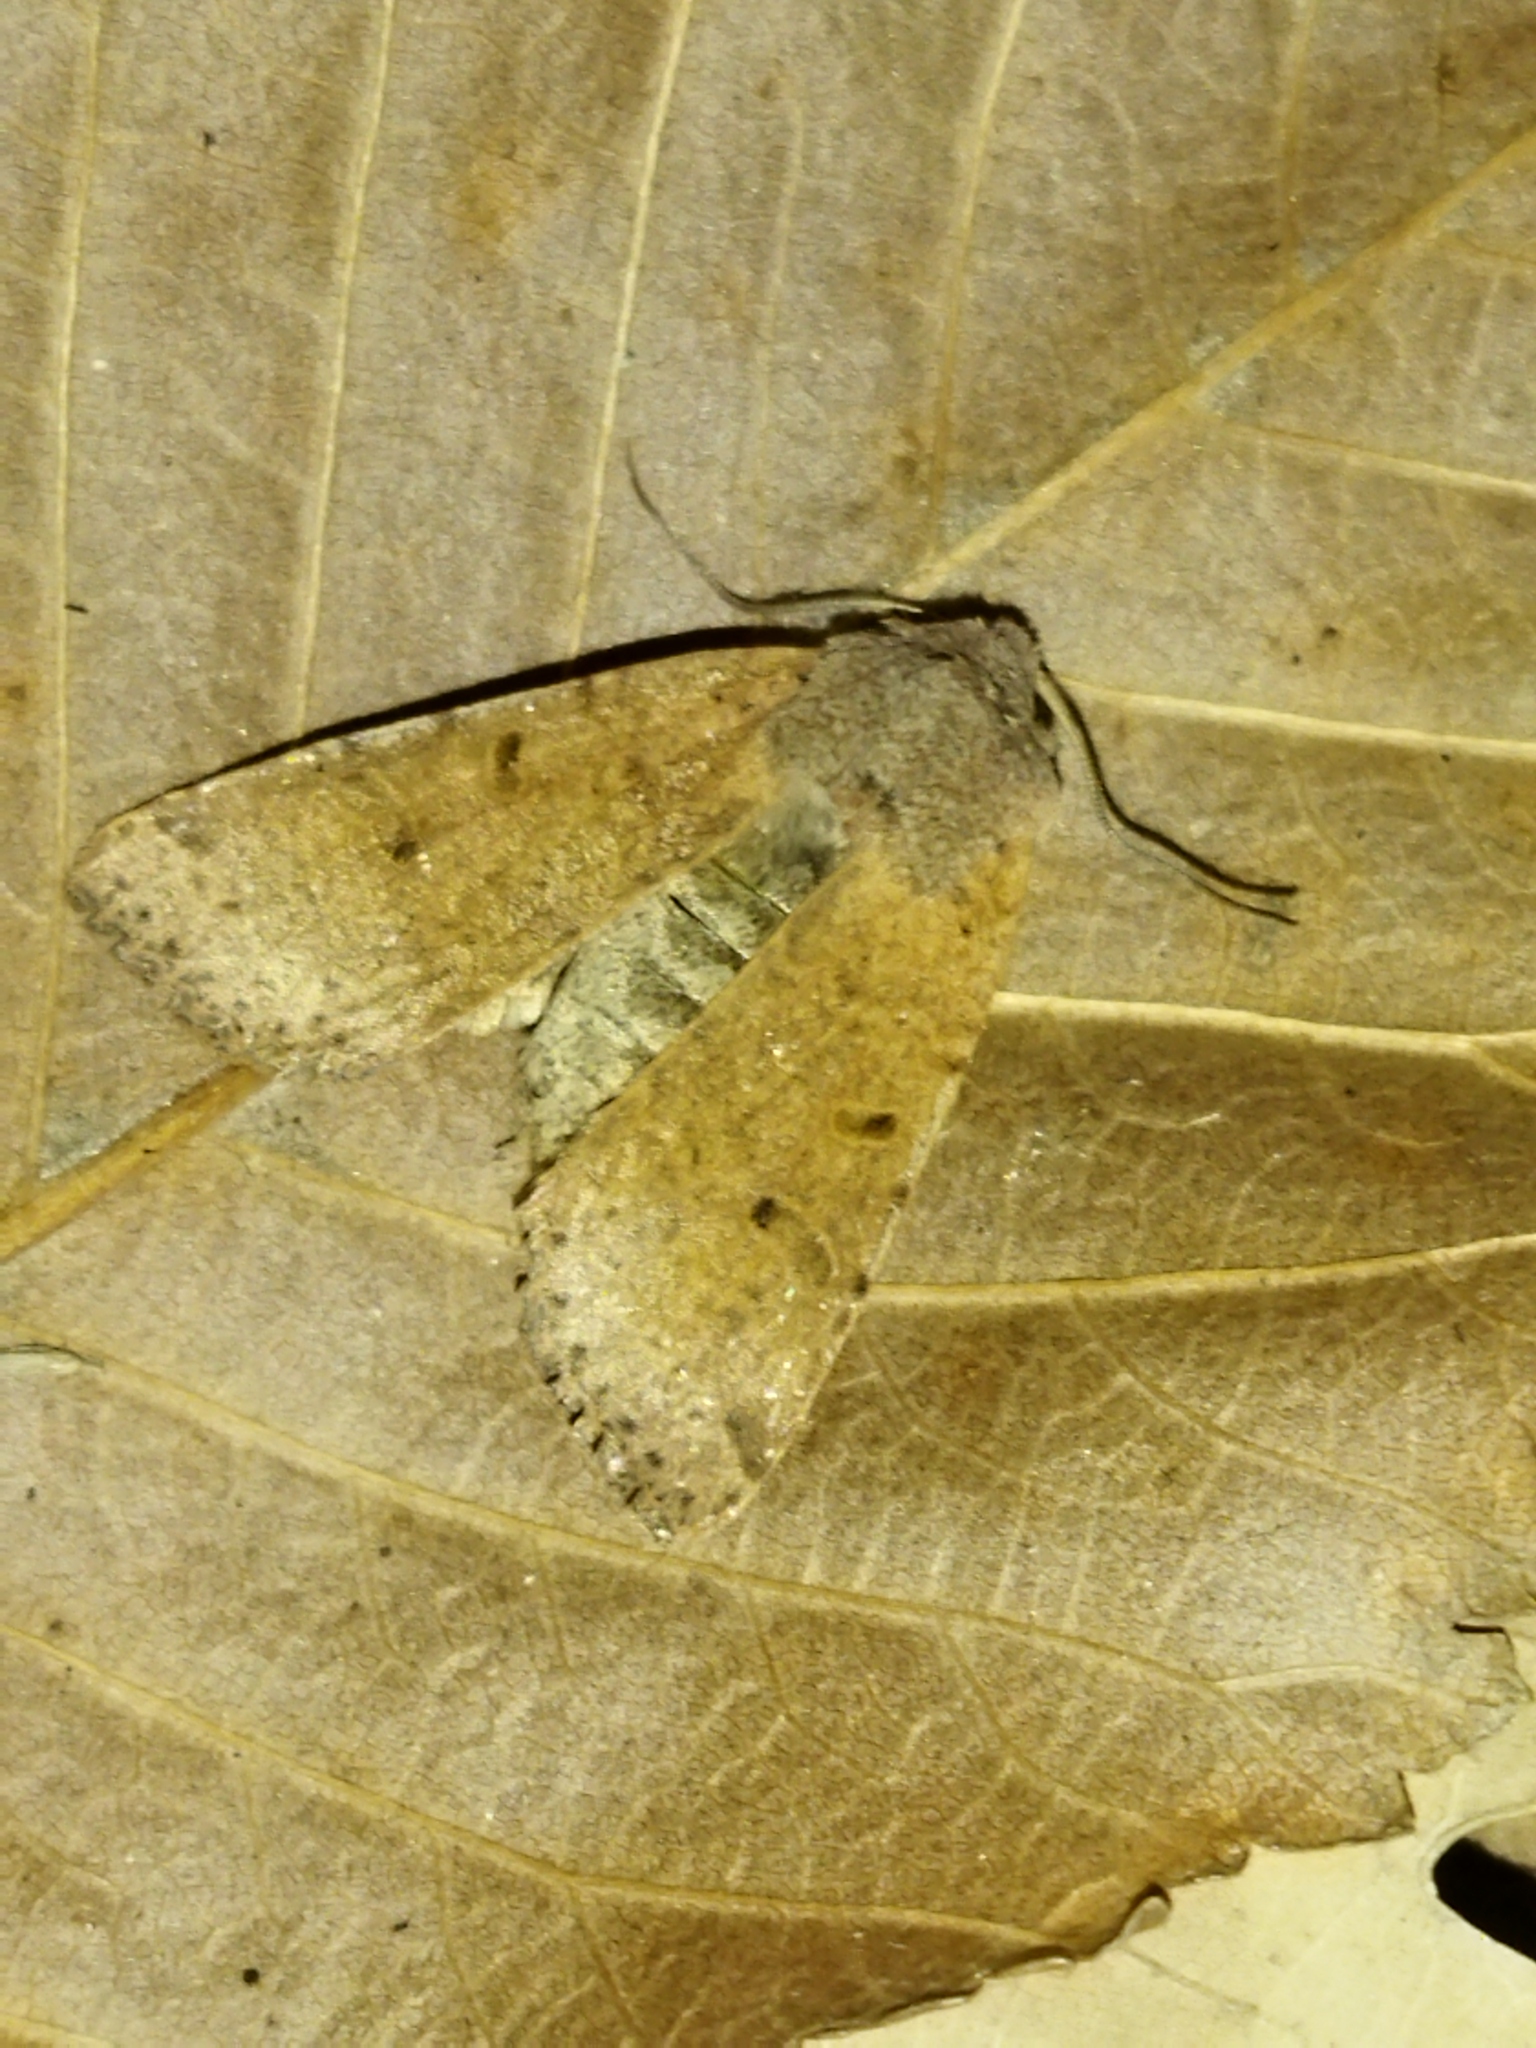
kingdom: Animalia
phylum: Arthropoda
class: Insecta
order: Lepidoptera
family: Noctuidae
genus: Agrochola
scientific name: Agrochola lychnidis
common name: Beaded chestnut
